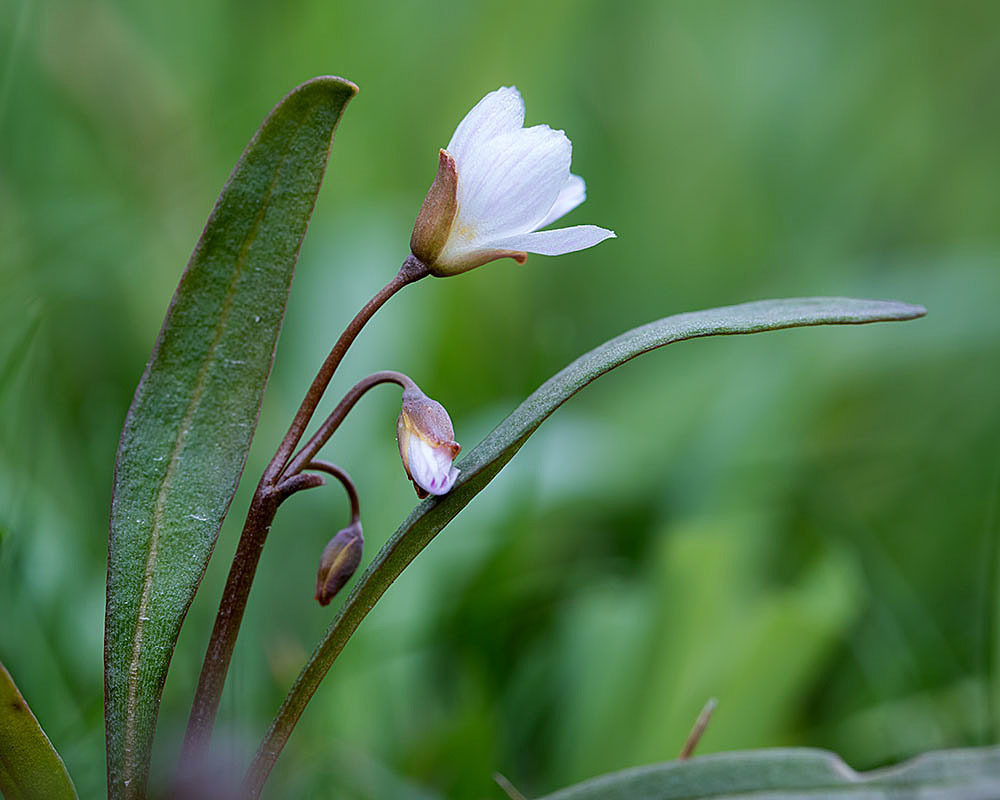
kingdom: Plantae
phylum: Tracheophyta
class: Magnoliopsida
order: Caryophyllales
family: Montiaceae
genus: Claytonia
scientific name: Claytonia virginica
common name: Virginia springbeauty
